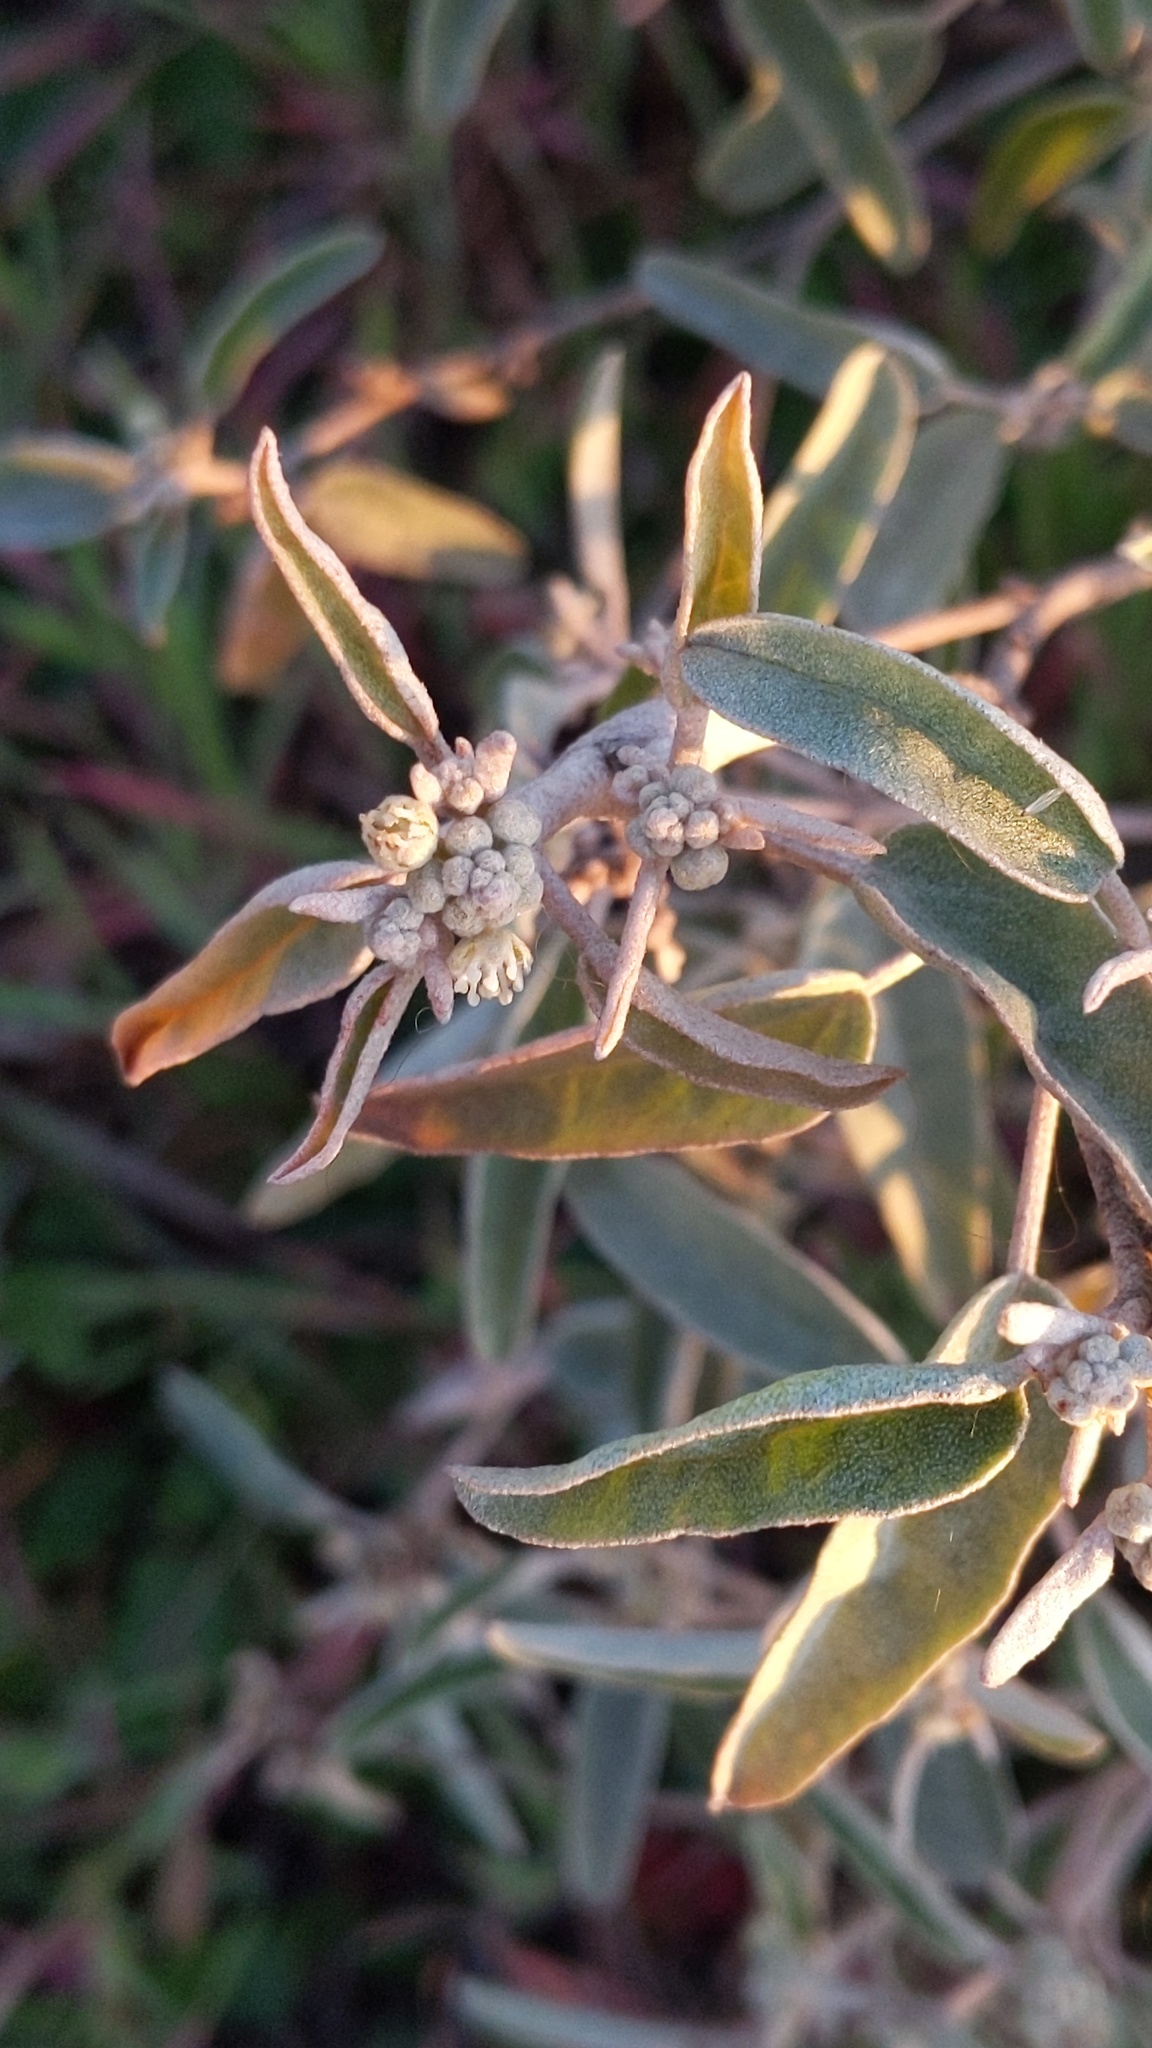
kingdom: Plantae
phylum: Tracheophyta
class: Magnoliopsida
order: Malpighiales
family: Euphorbiaceae
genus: Croton
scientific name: Croton californicus
